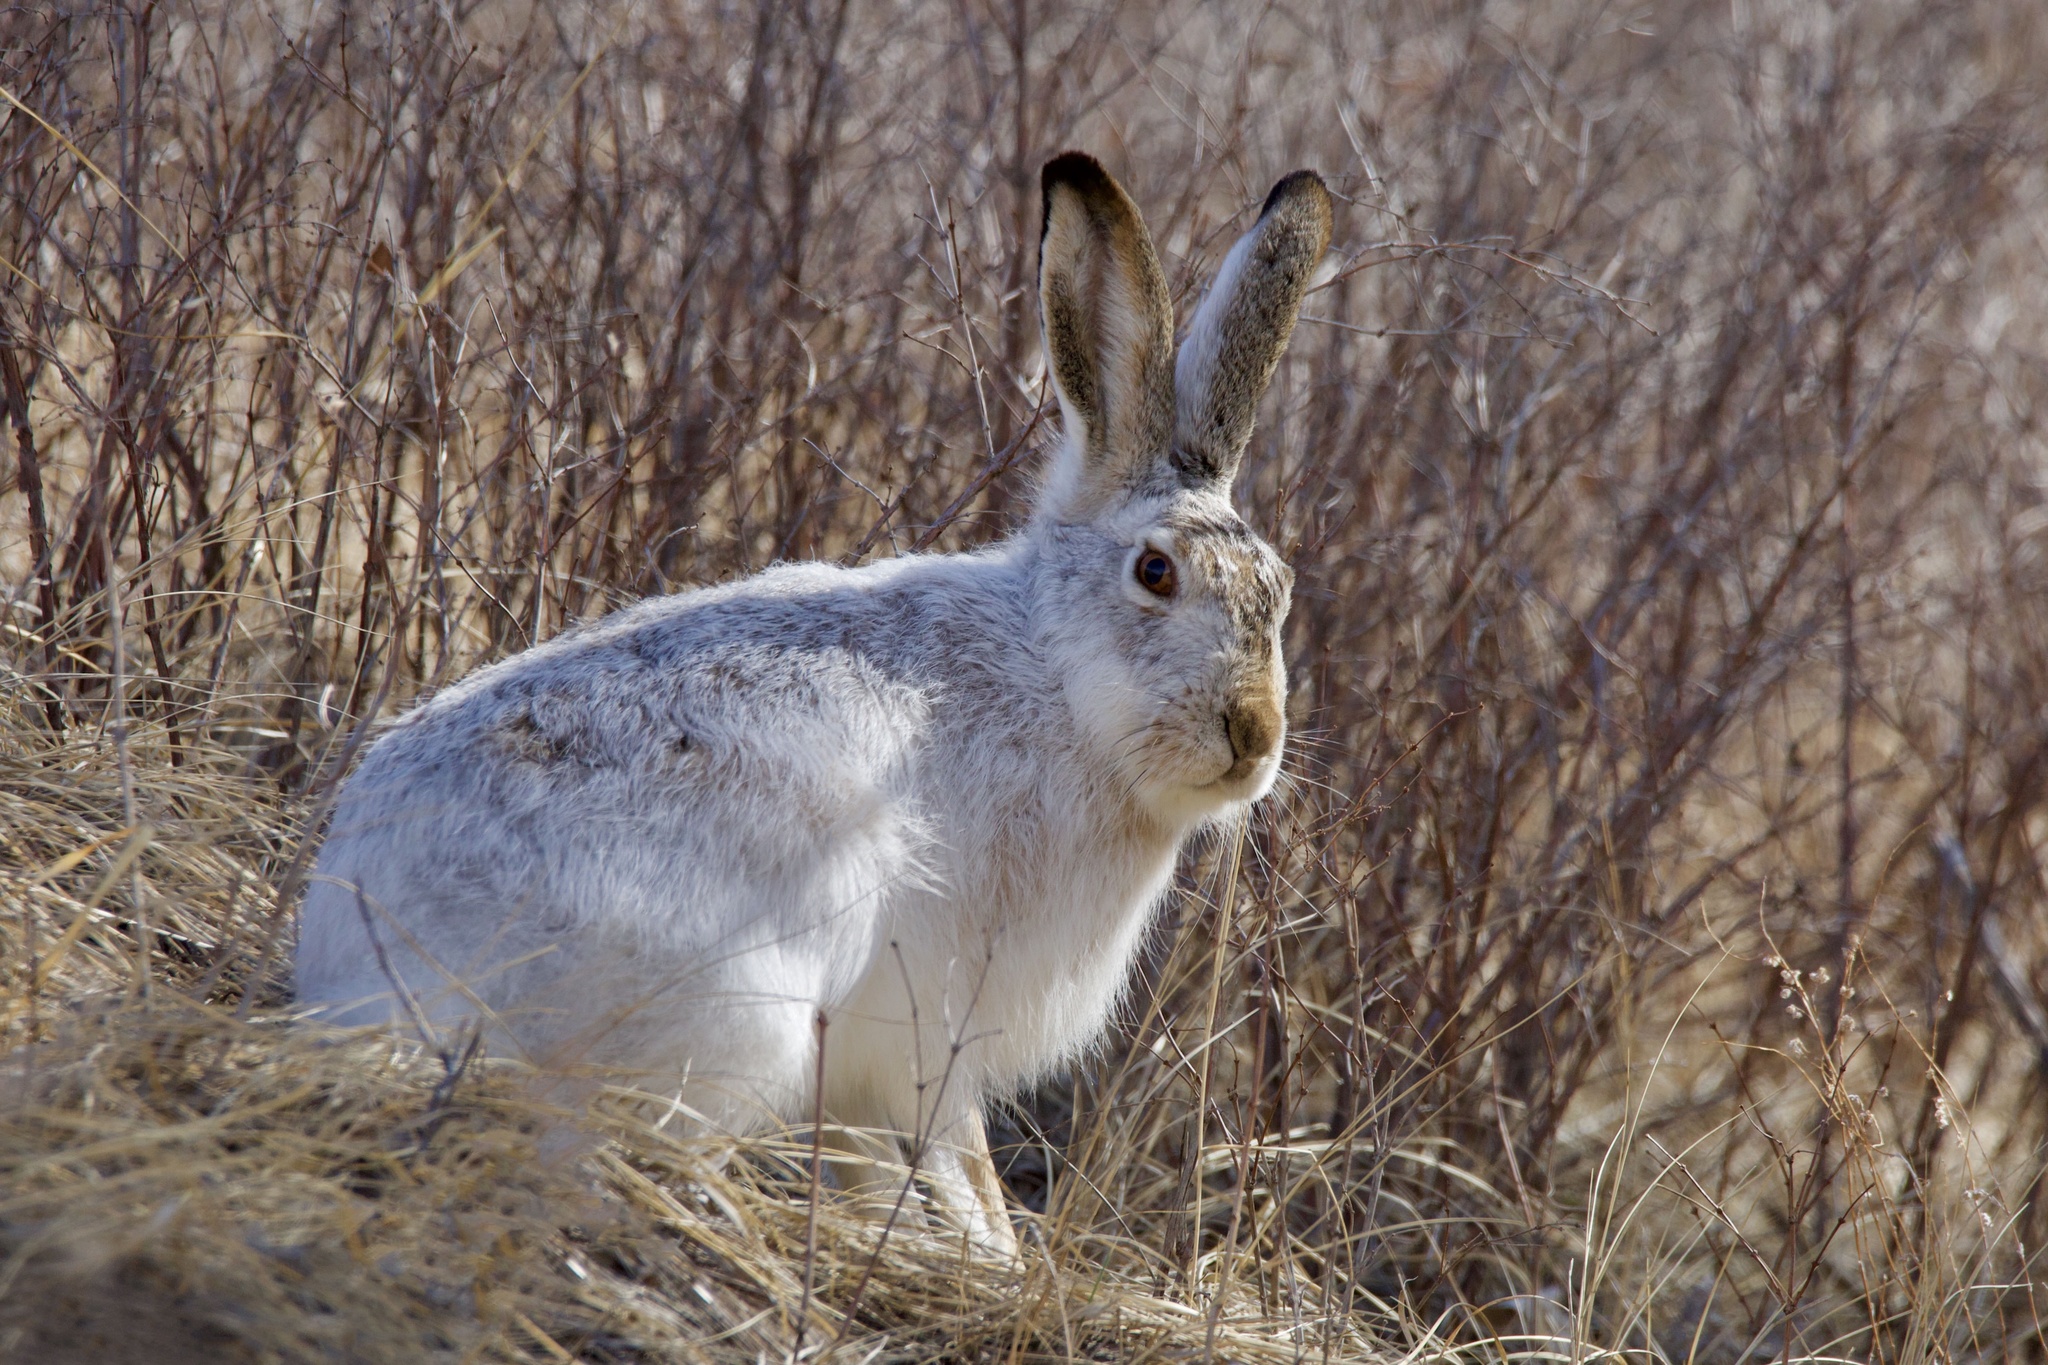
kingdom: Animalia
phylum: Chordata
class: Mammalia
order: Lagomorpha
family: Leporidae
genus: Lepus
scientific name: Lepus townsendii
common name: White-tailed jackrabbit
